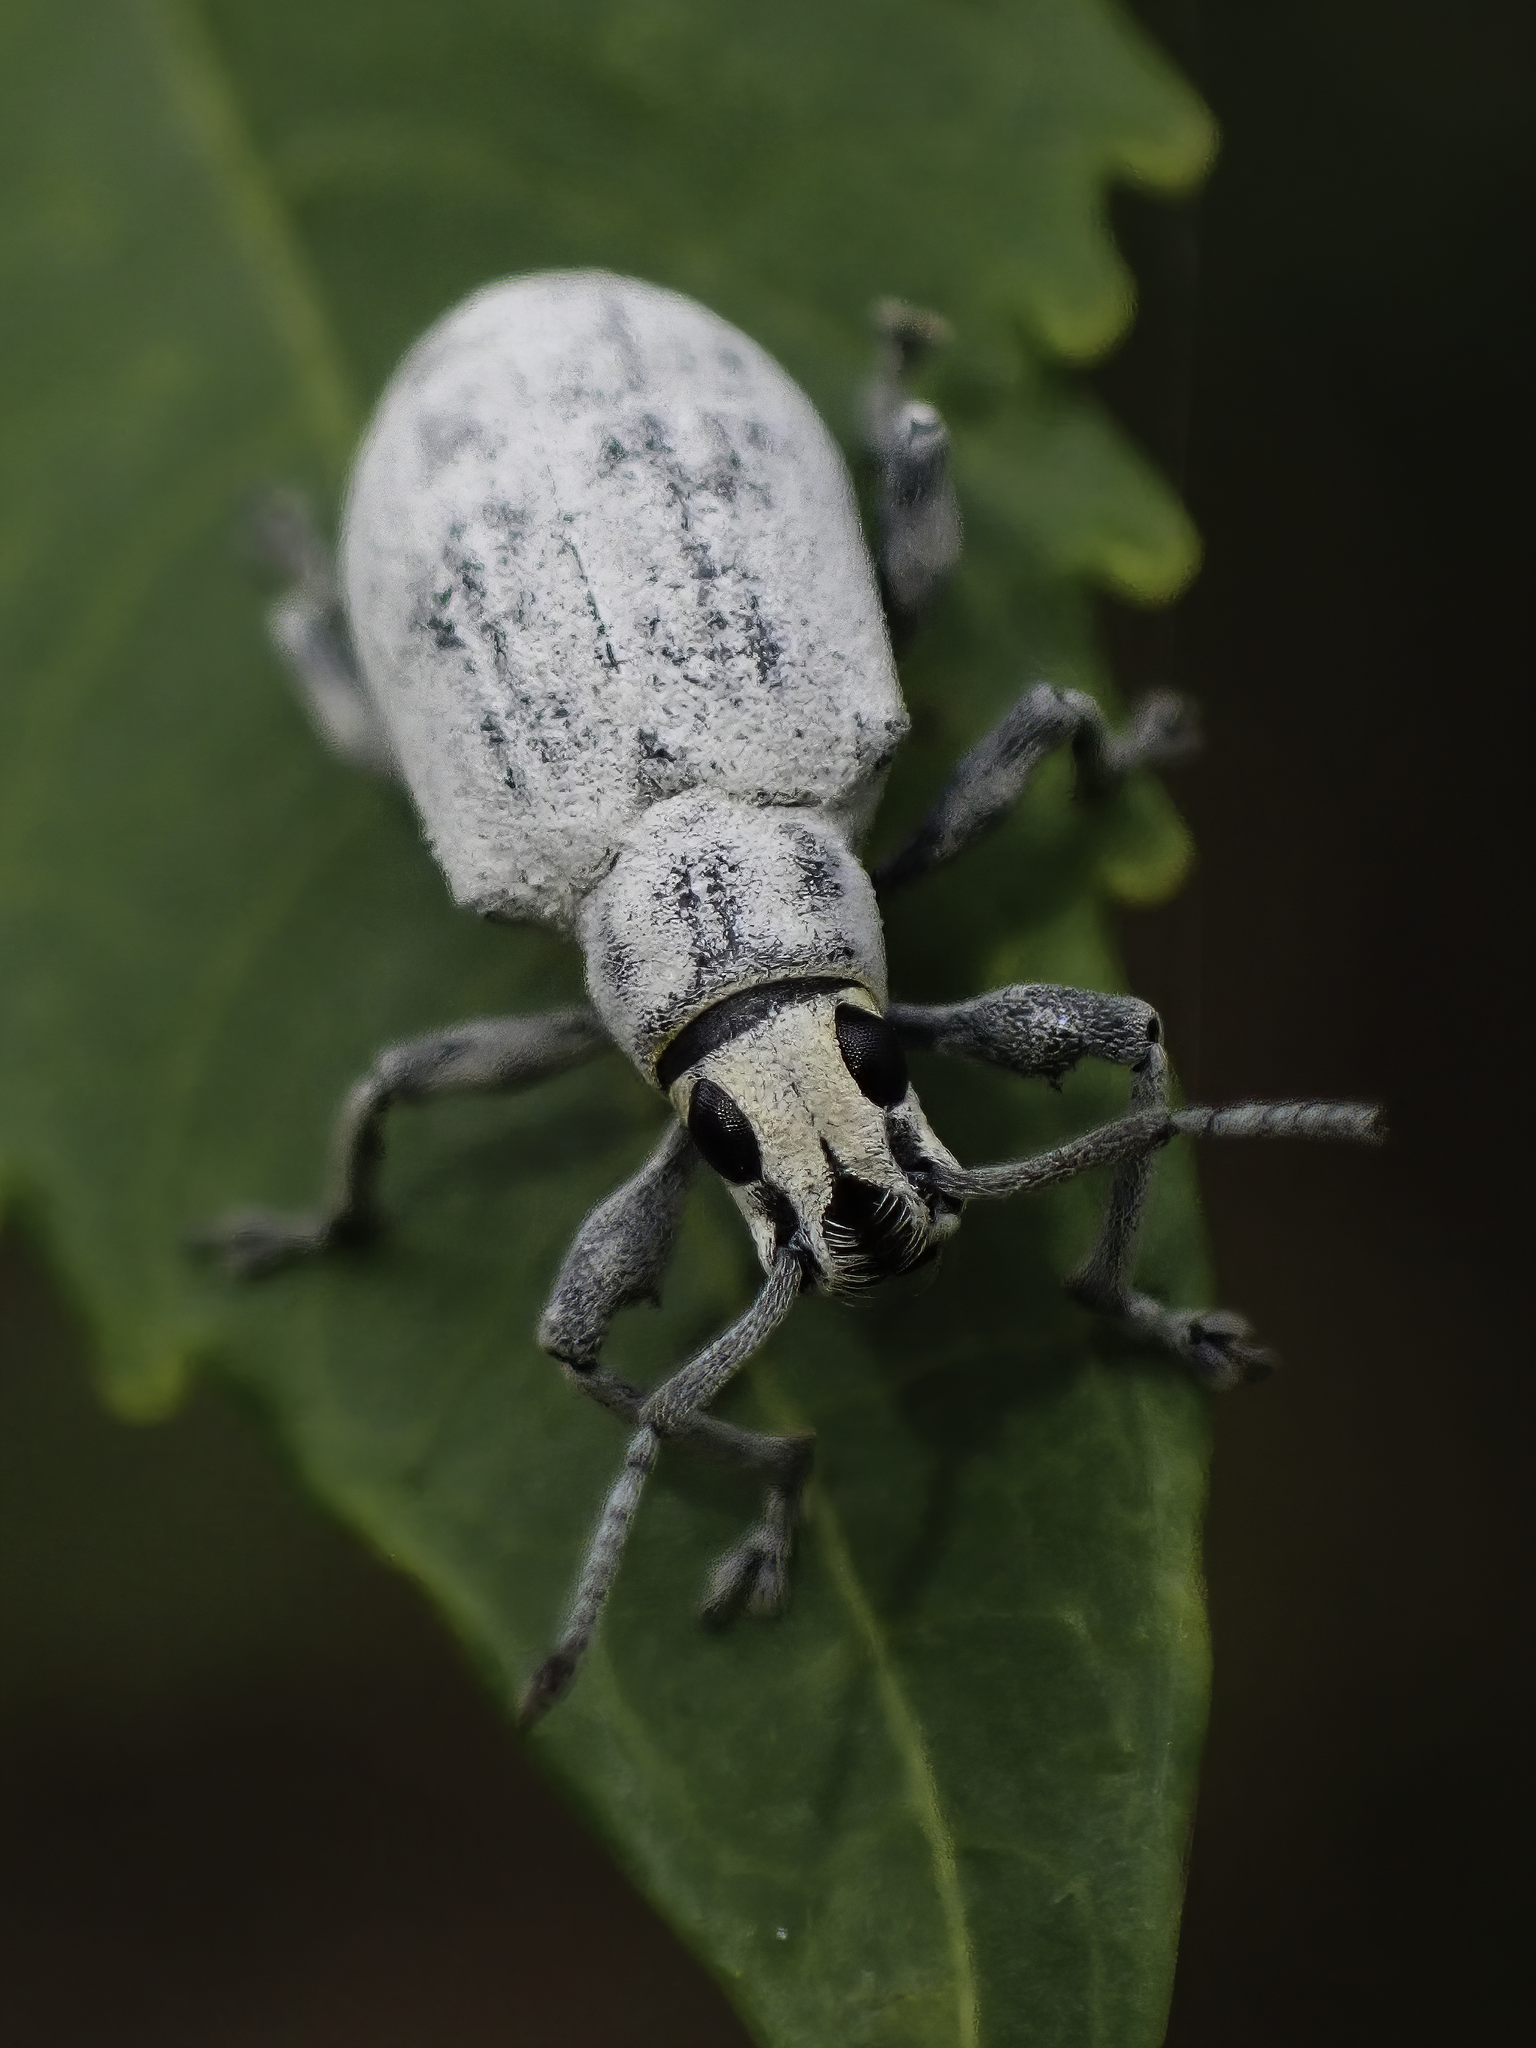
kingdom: Animalia
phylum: Arthropoda
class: Insecta
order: Coleoptera
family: Curculionidae
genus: Myllocerus
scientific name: Myllocerus undecimpustulatus
